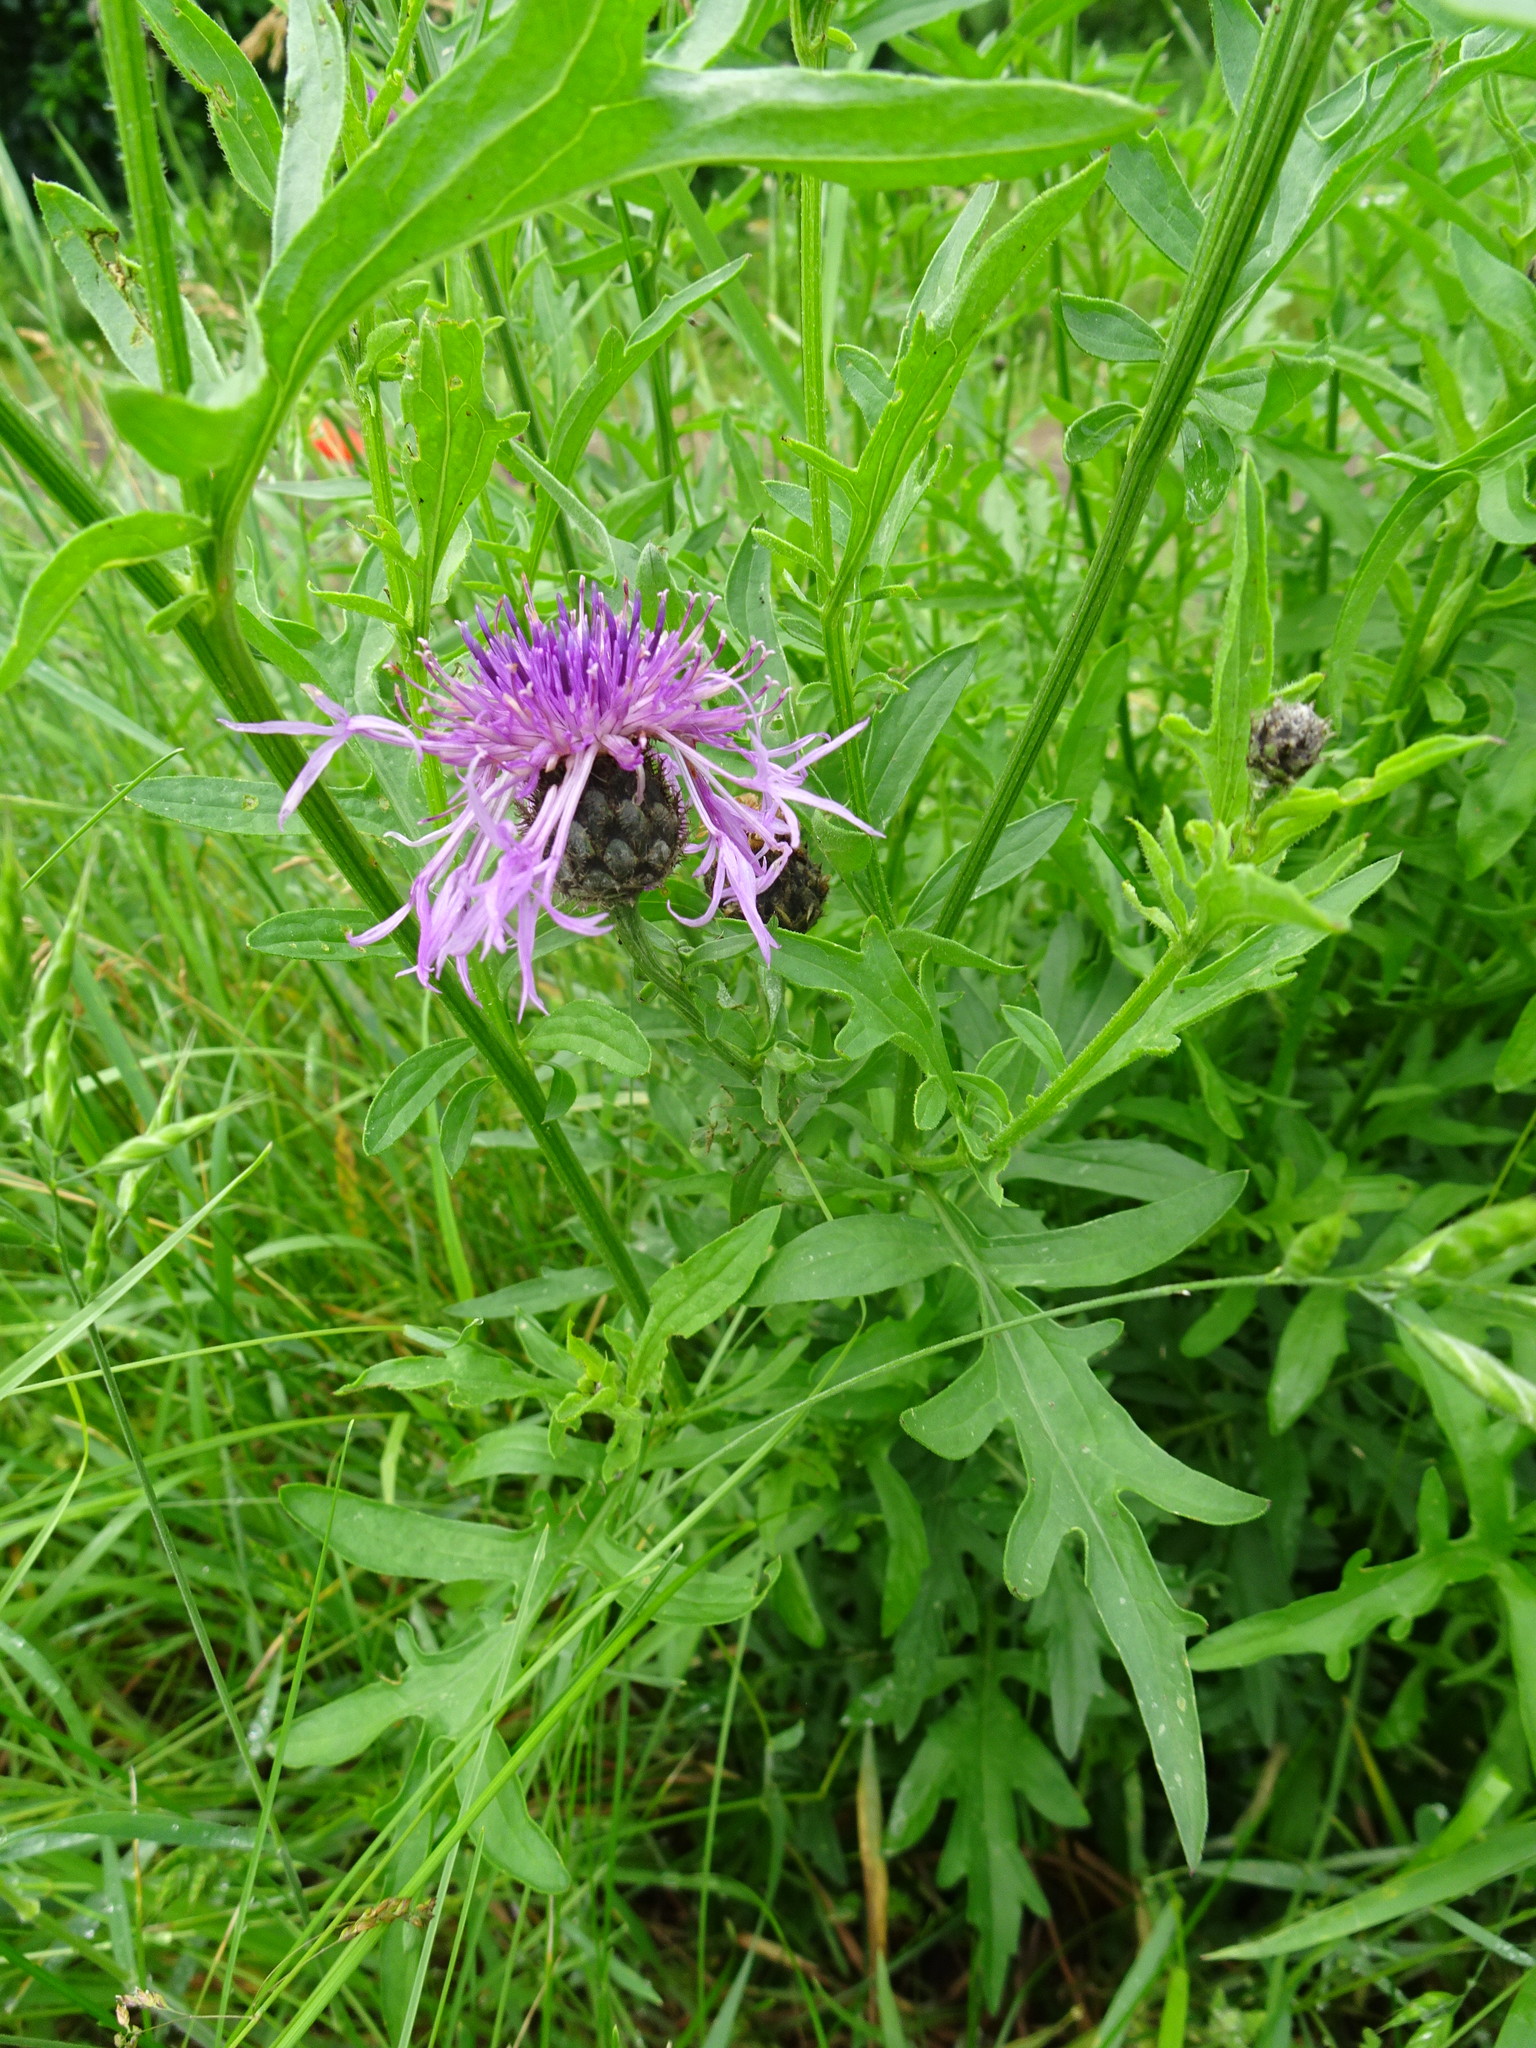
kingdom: Plantae
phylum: Tracheophyta
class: Magnoliopsida
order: Asterales
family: Asteraceae
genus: Centaurea
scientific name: Centaurea scabiosa
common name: Greater knapweed
